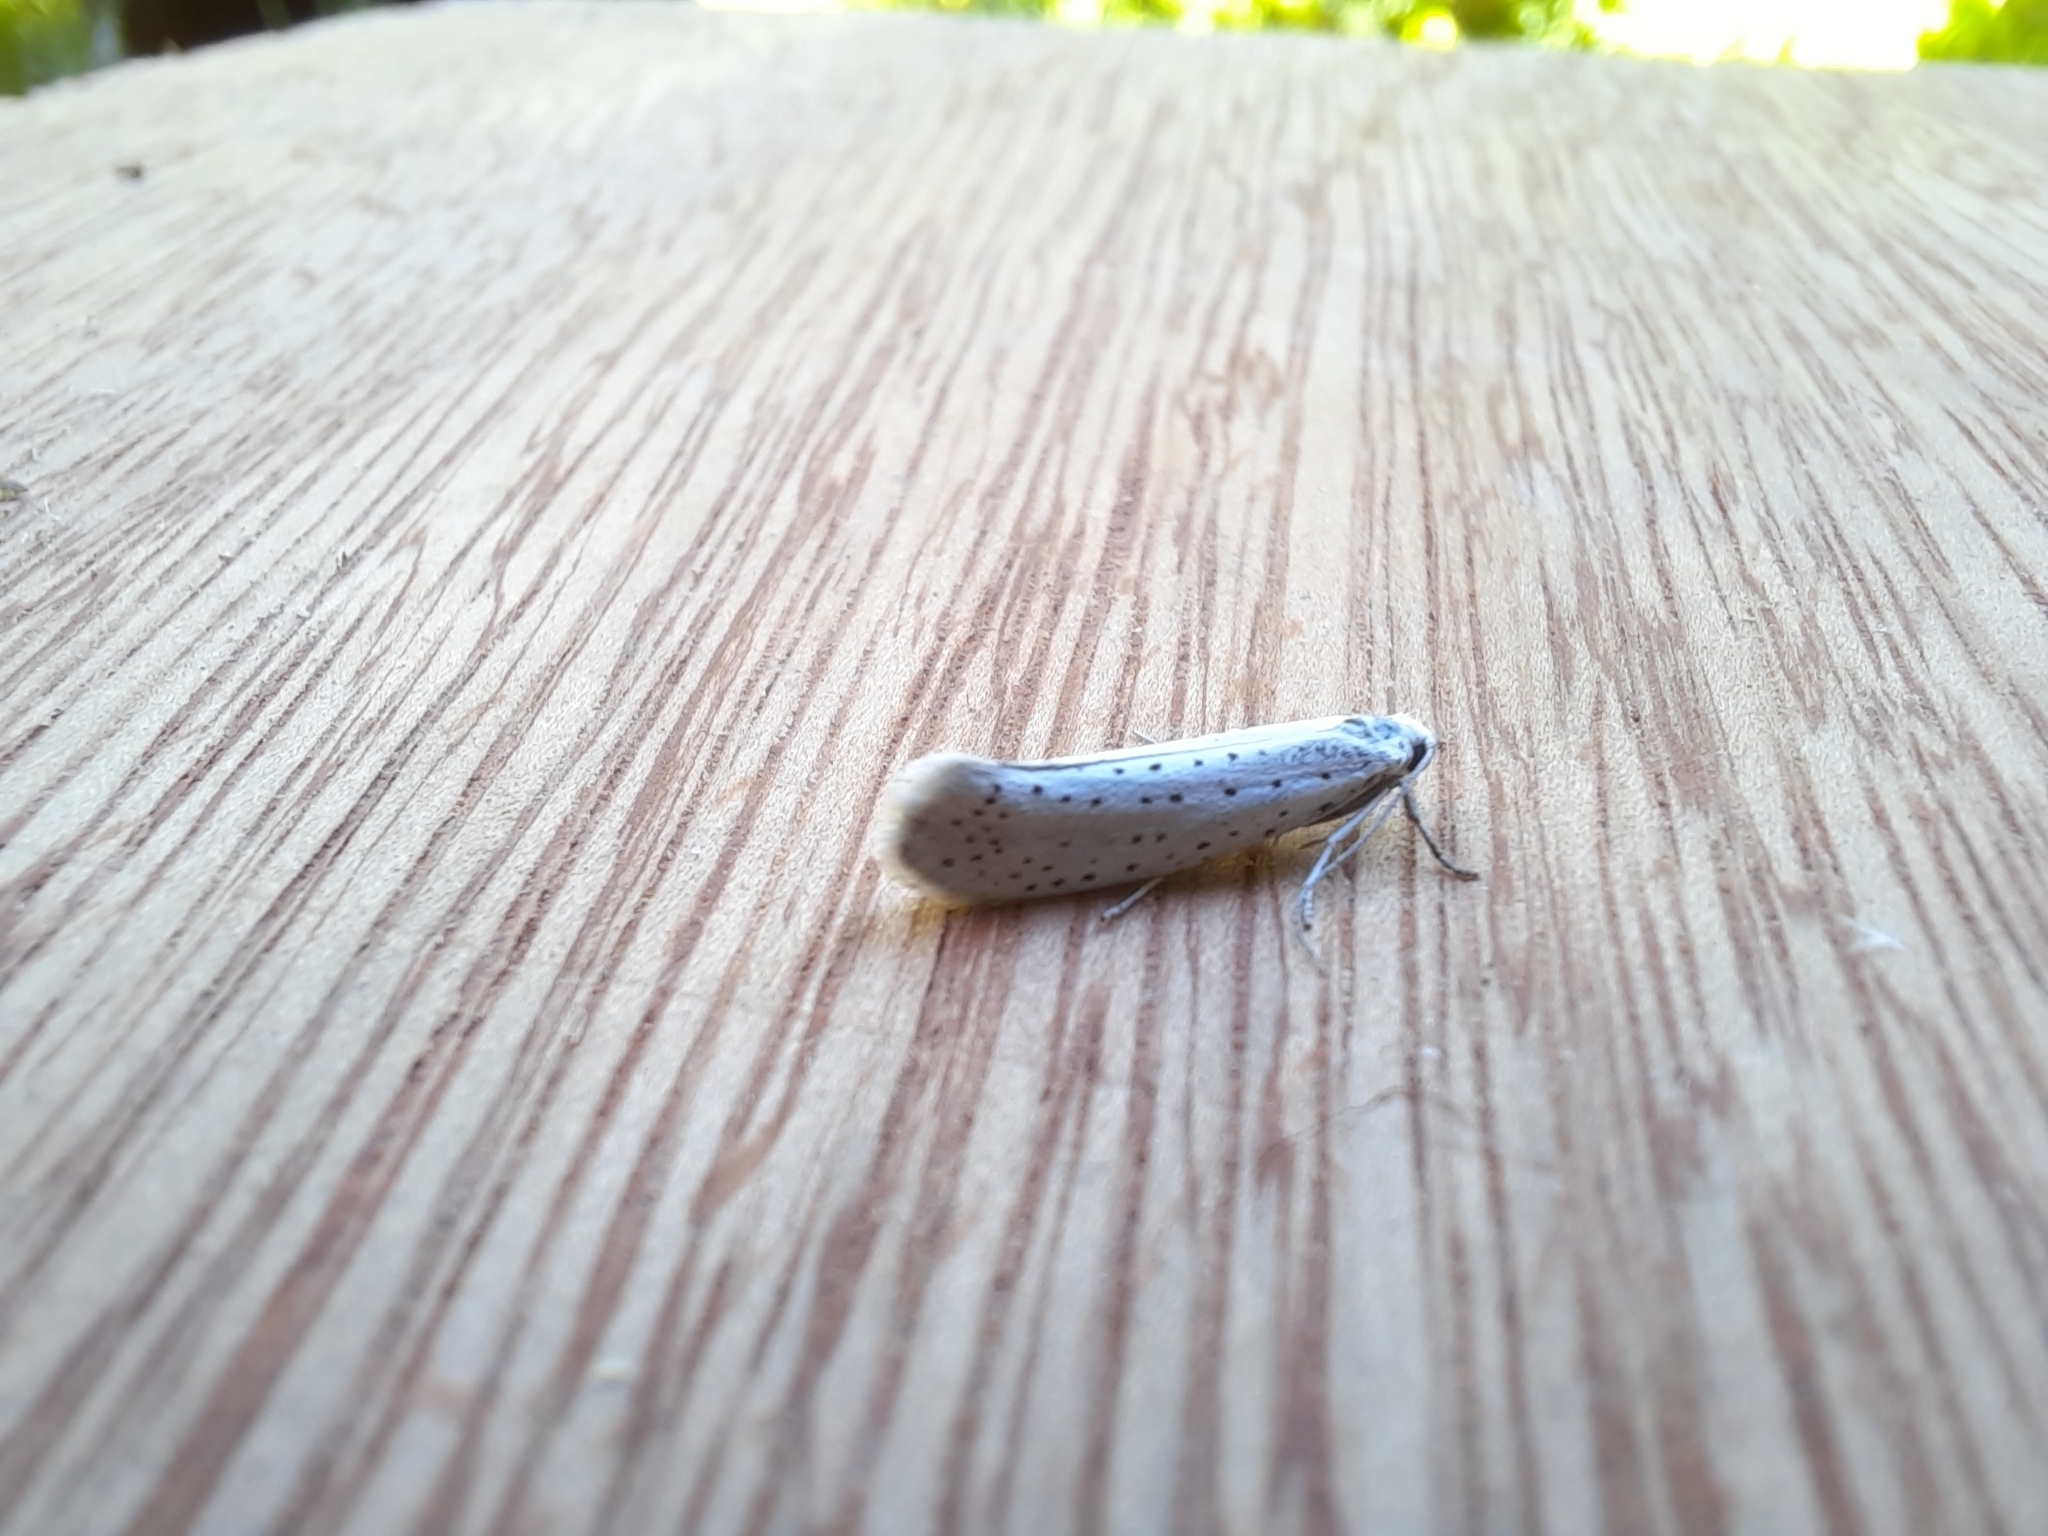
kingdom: Animalia
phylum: Arthropoda
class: Insecta
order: Lepidoptera
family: Yponomeutidae
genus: Yponomeuta
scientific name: Yponomeuta evonymella
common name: Bird-cherry ermine
